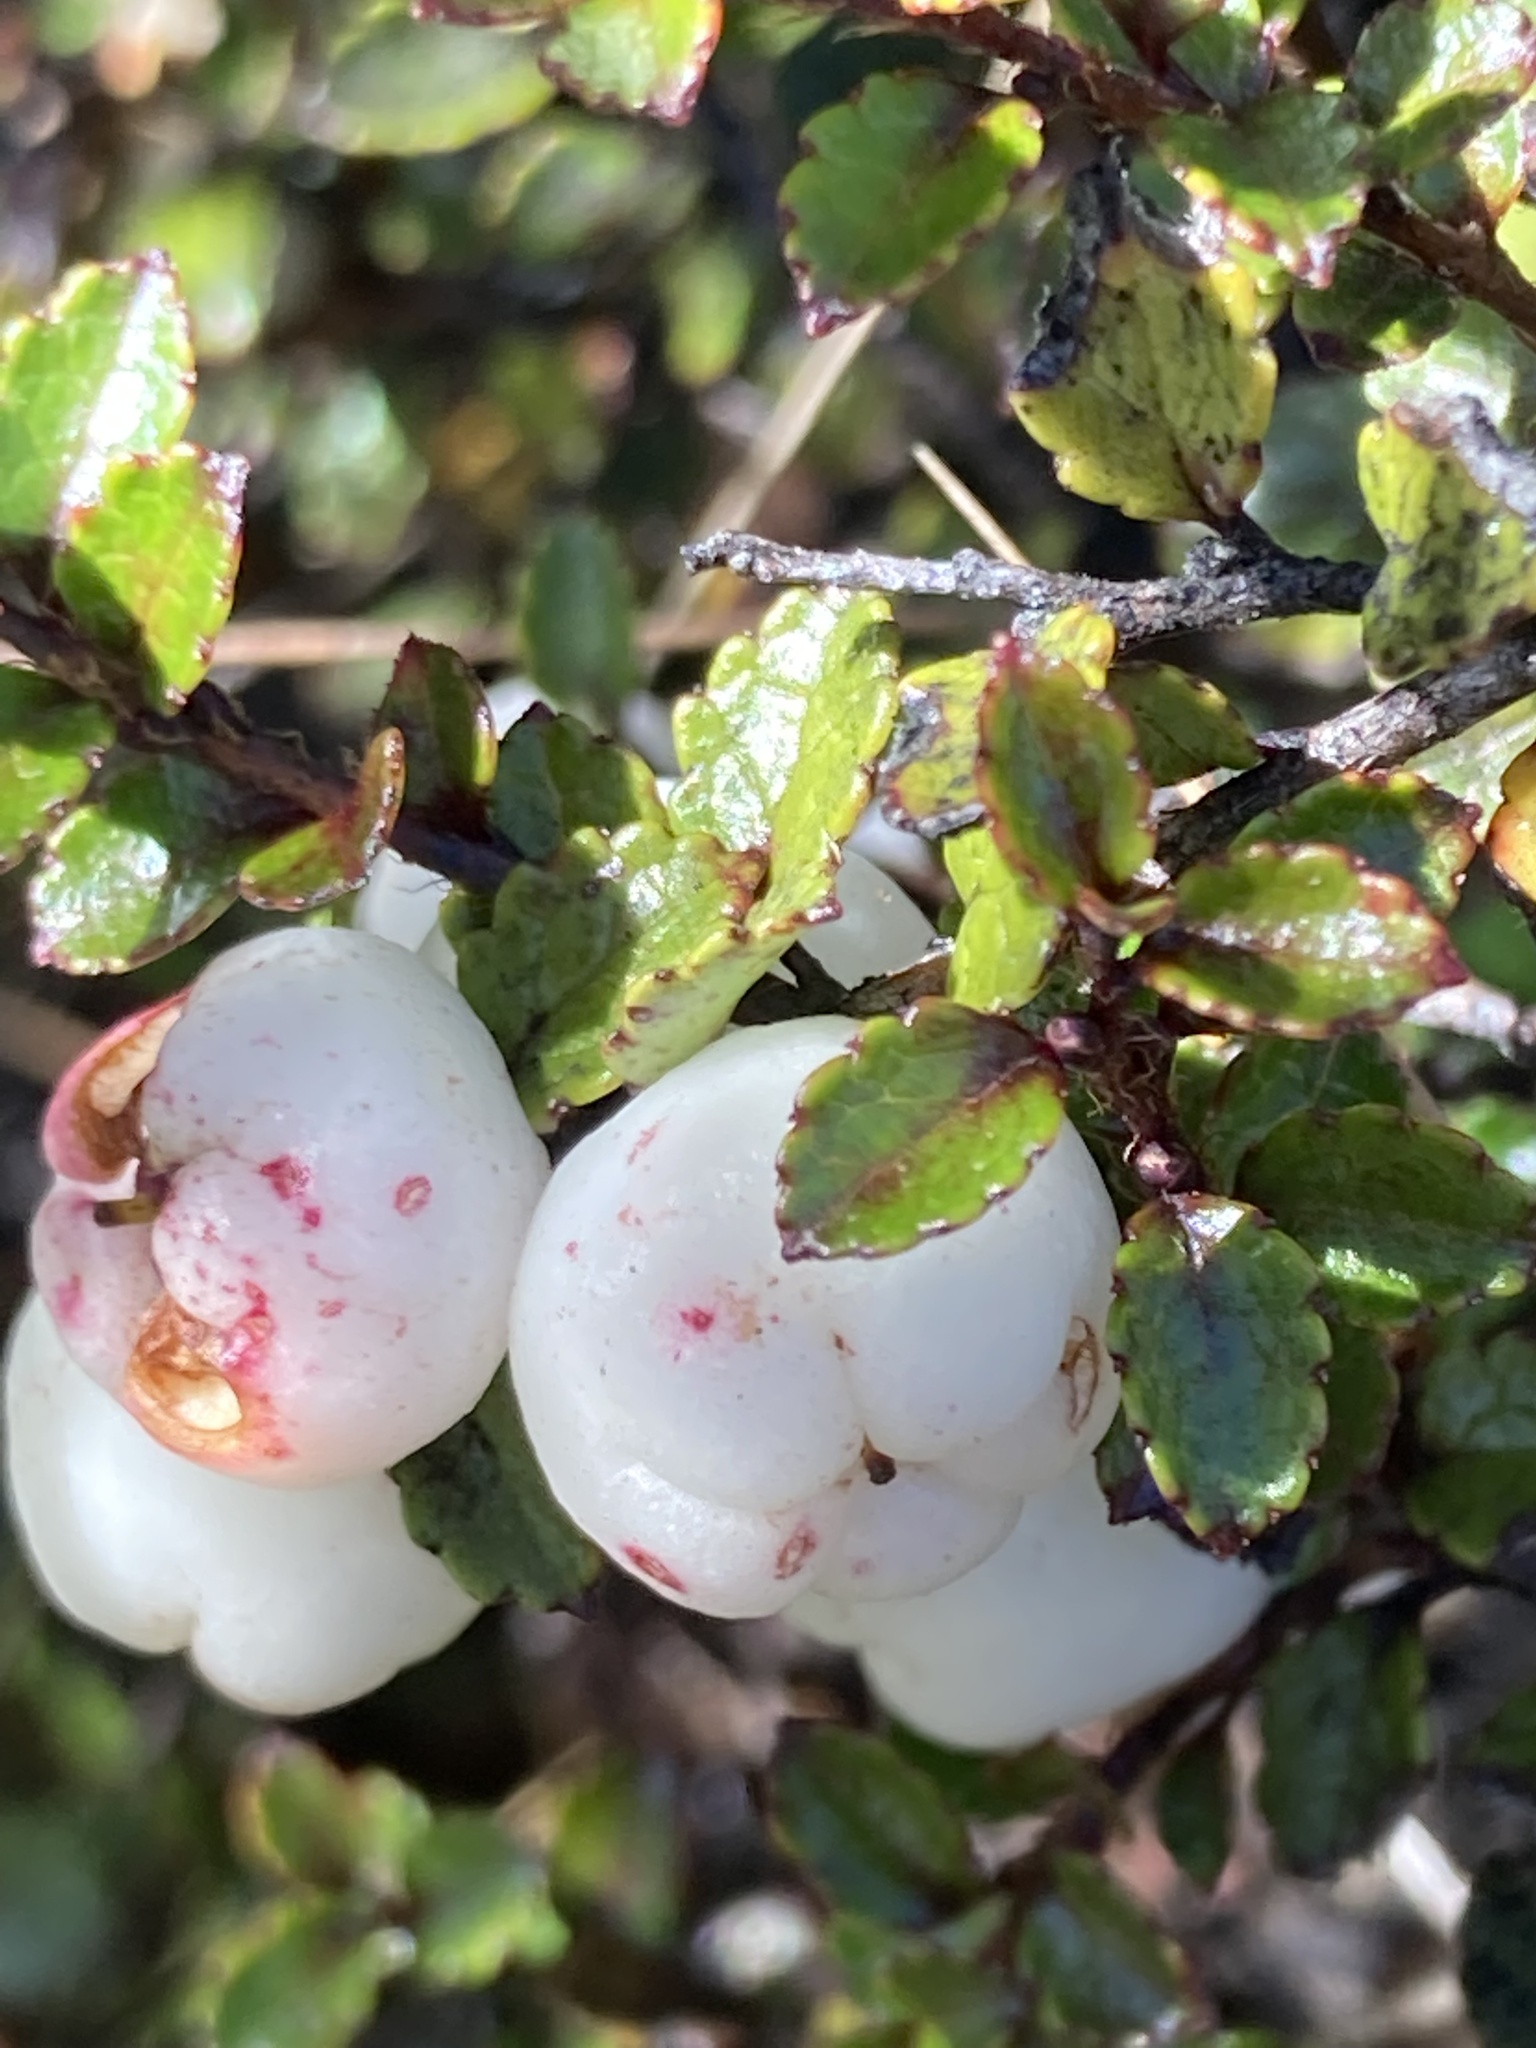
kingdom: Plantae
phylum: Tracheophyta
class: Magnoliopsida
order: Ericales
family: Ericaceae
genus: Gaultheria
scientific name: Gaultheria depressa
